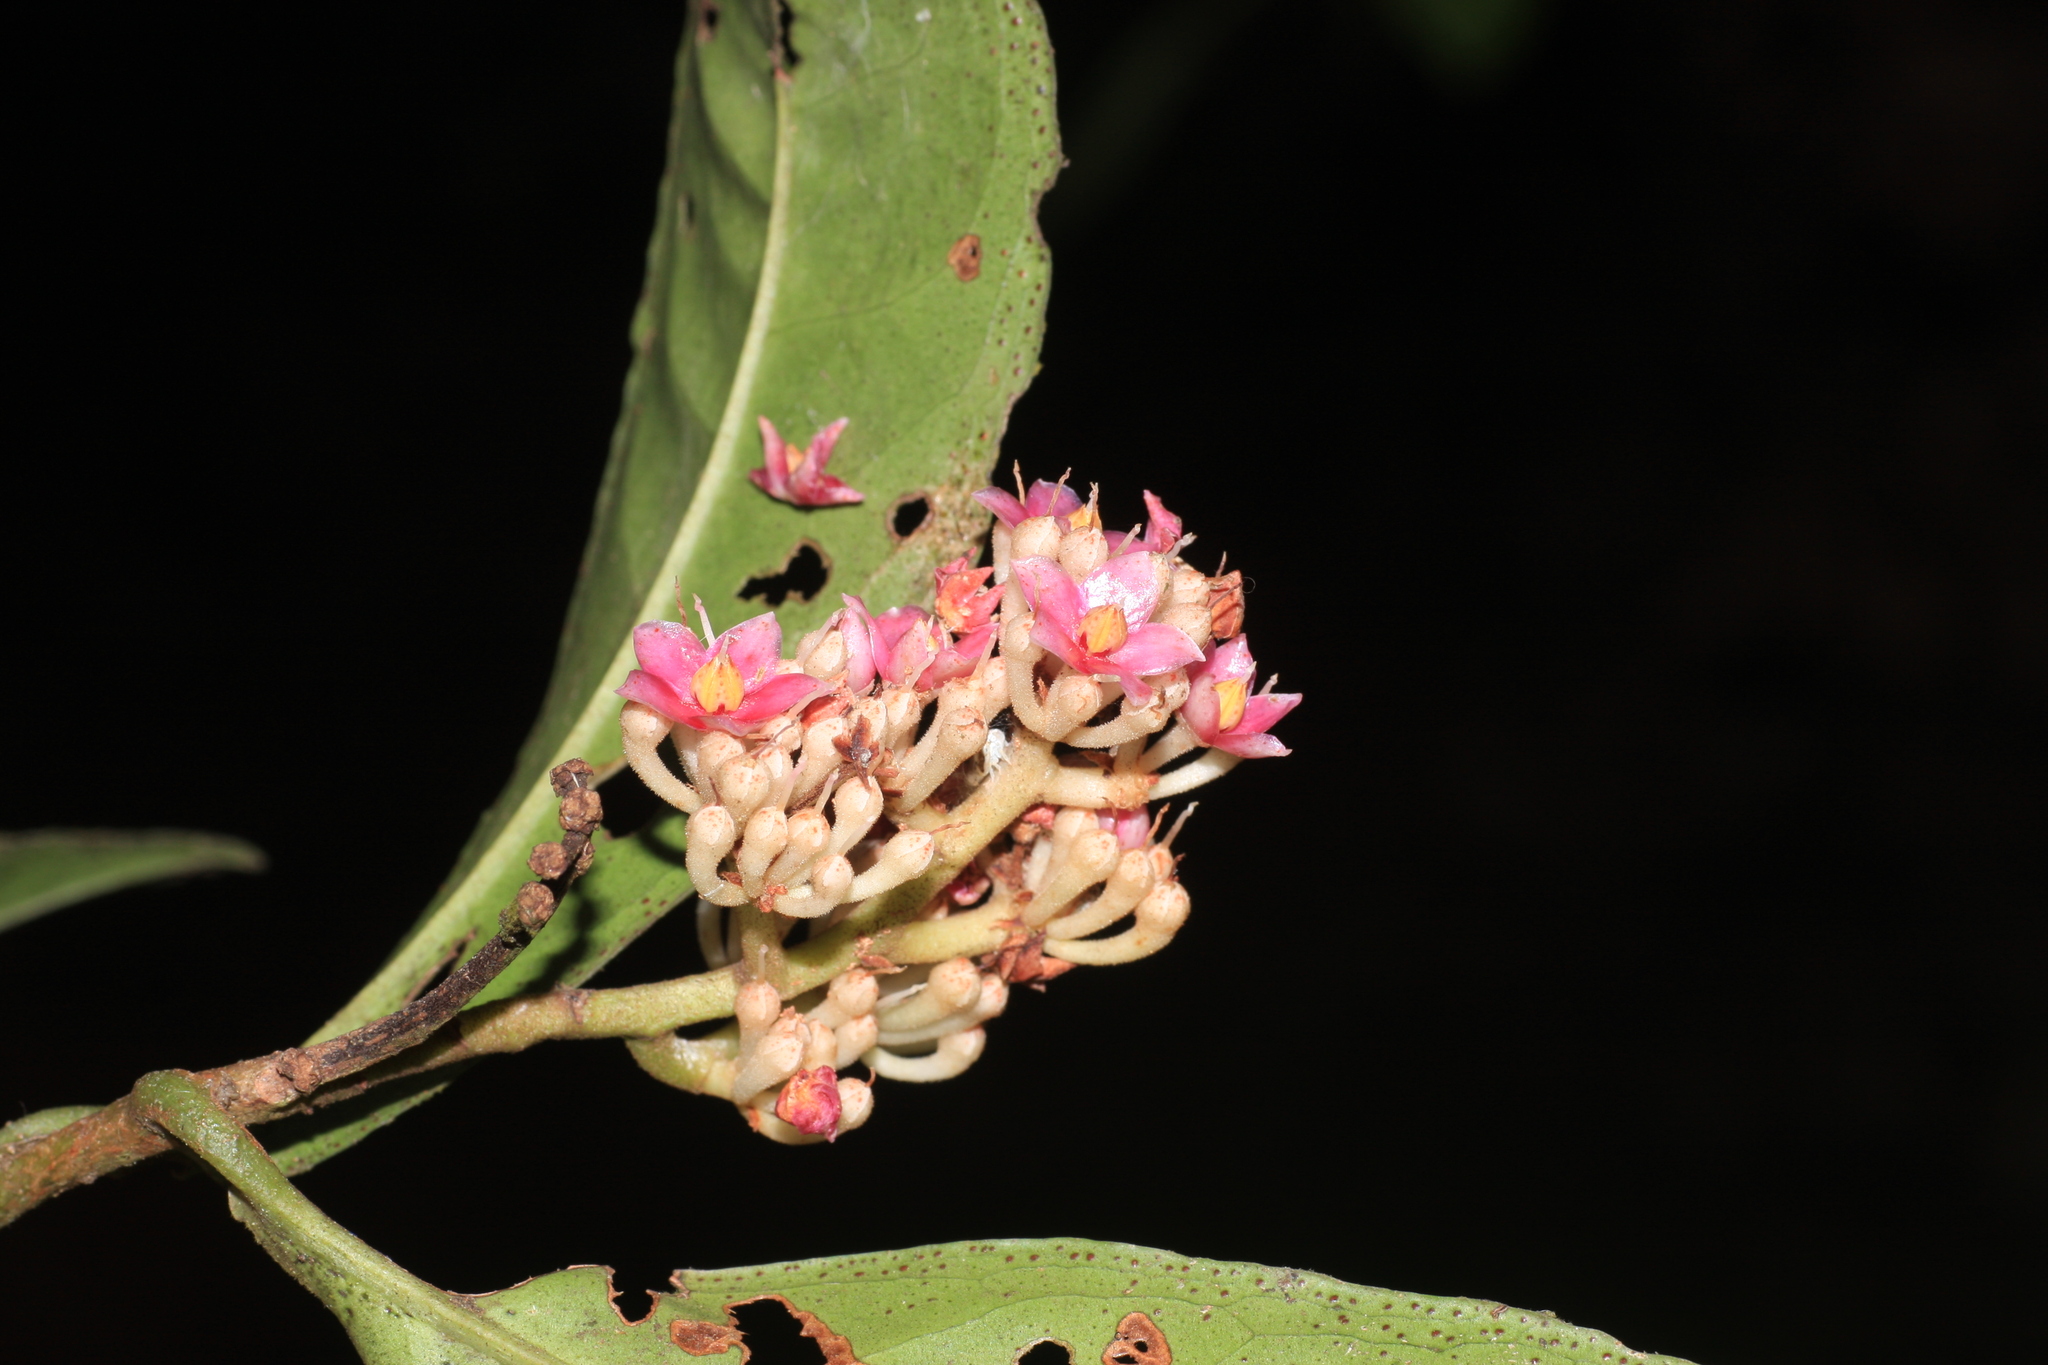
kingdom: Plantae
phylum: Tracheophyta
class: Magnoliopsida
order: Ericales
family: Primulaceae
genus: Ardisia
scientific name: Ardisia pauciflora
